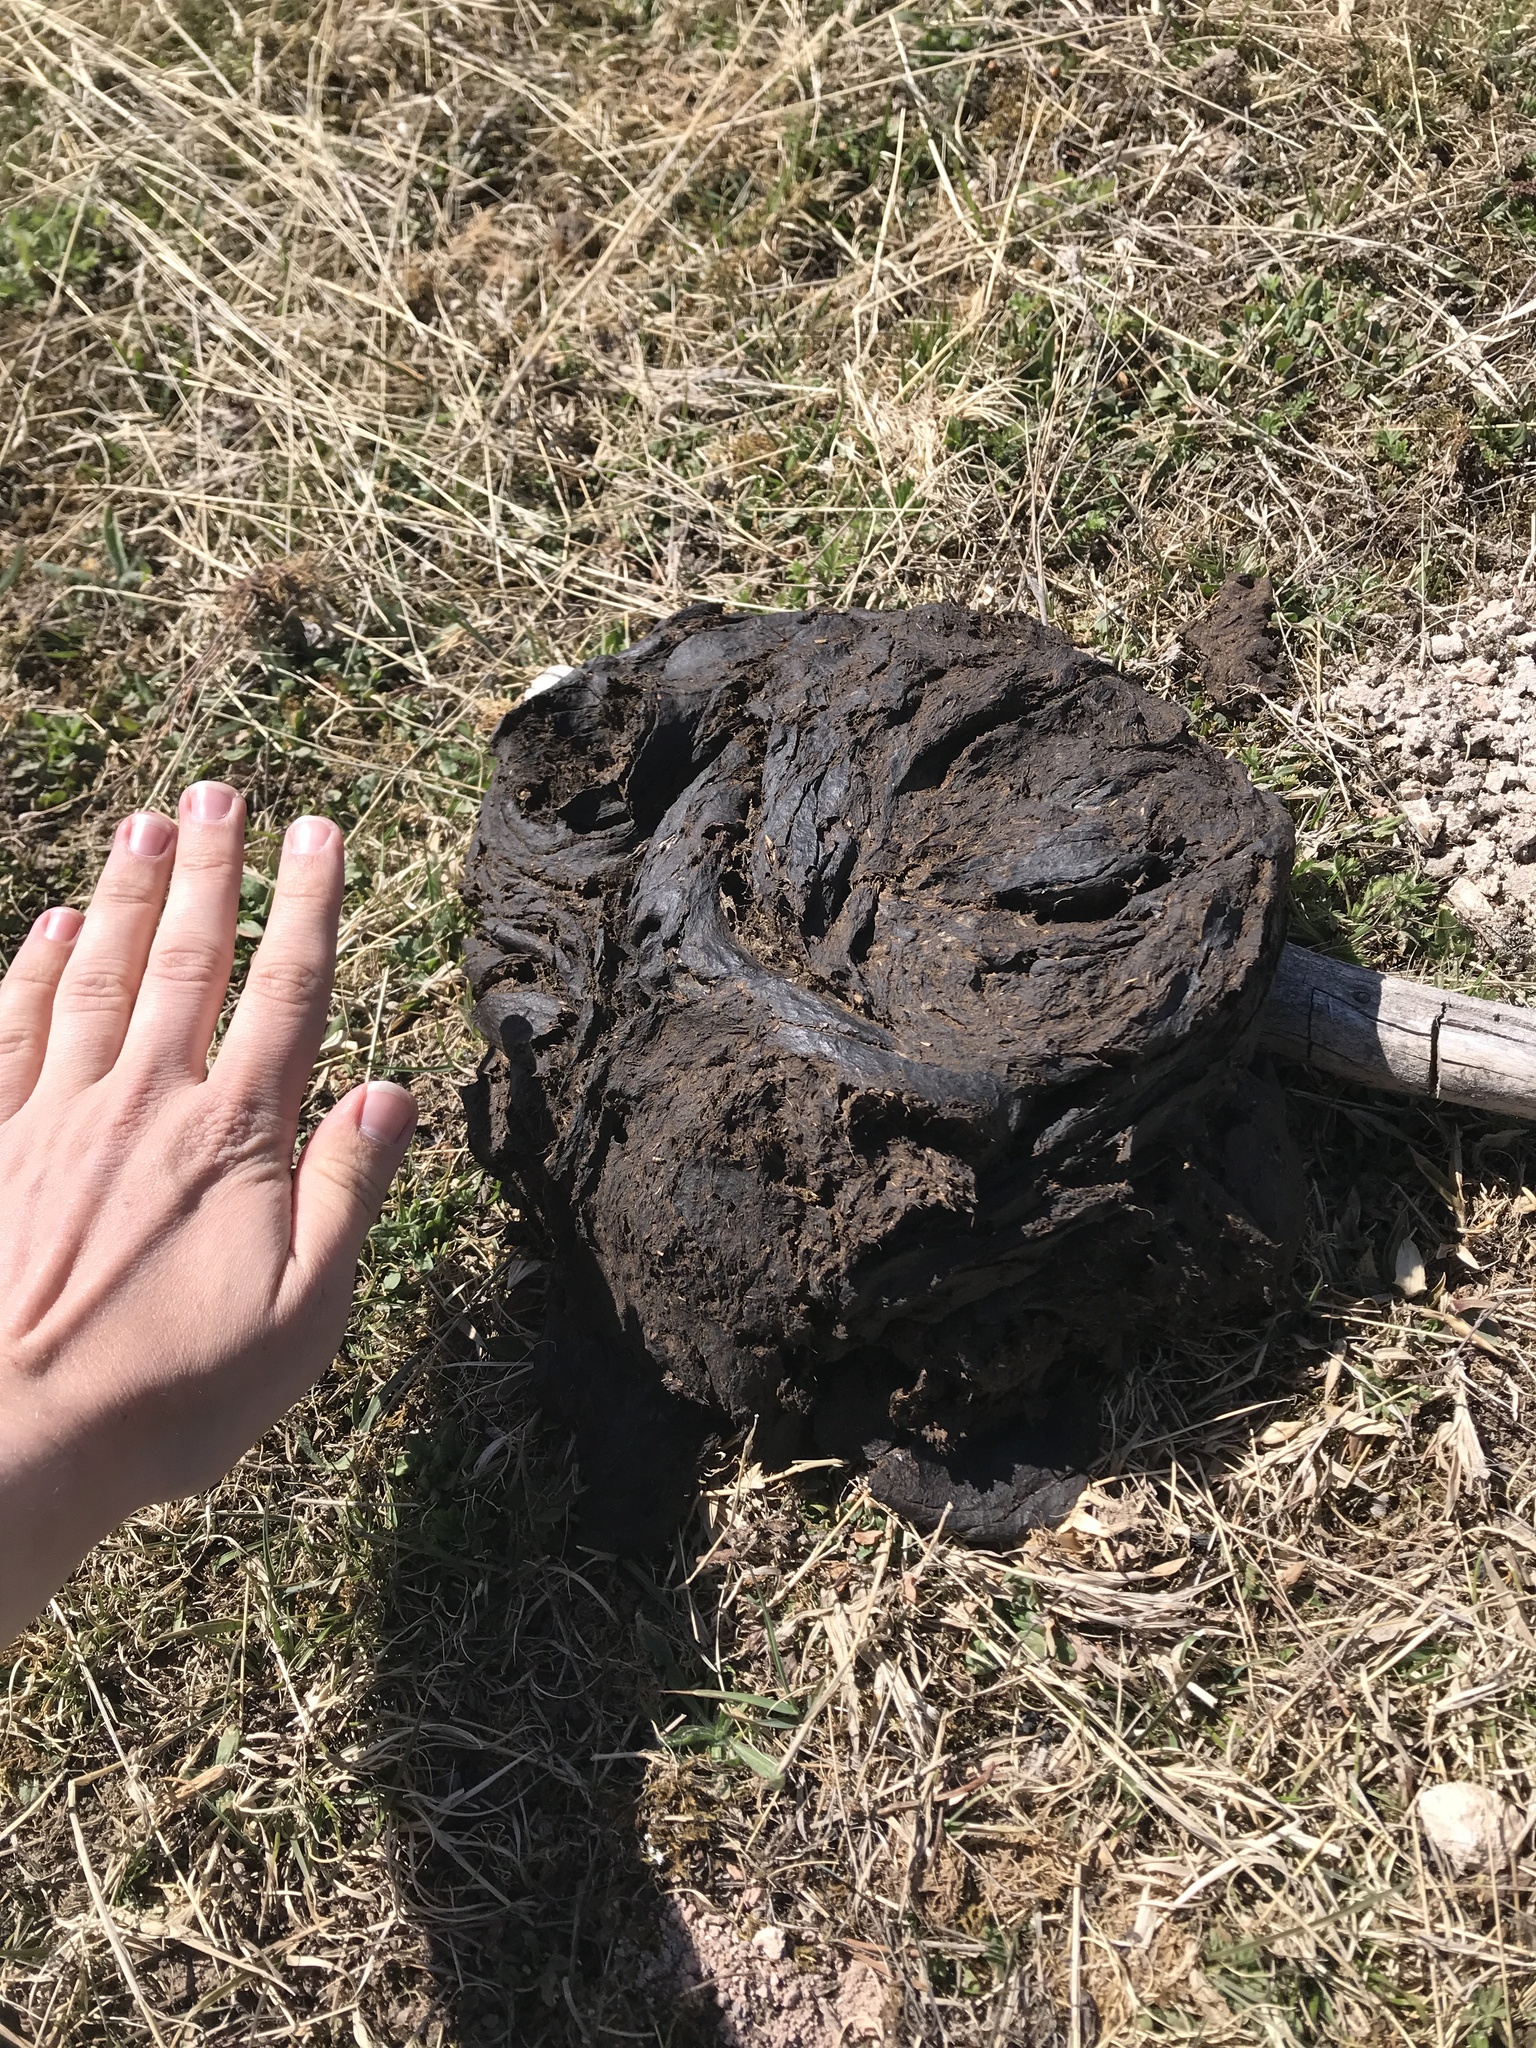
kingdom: Animalia
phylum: Chordata
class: Mammalia
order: Artiodactyla
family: Bovidae
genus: Bison
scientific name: Bison bison
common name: American bison
